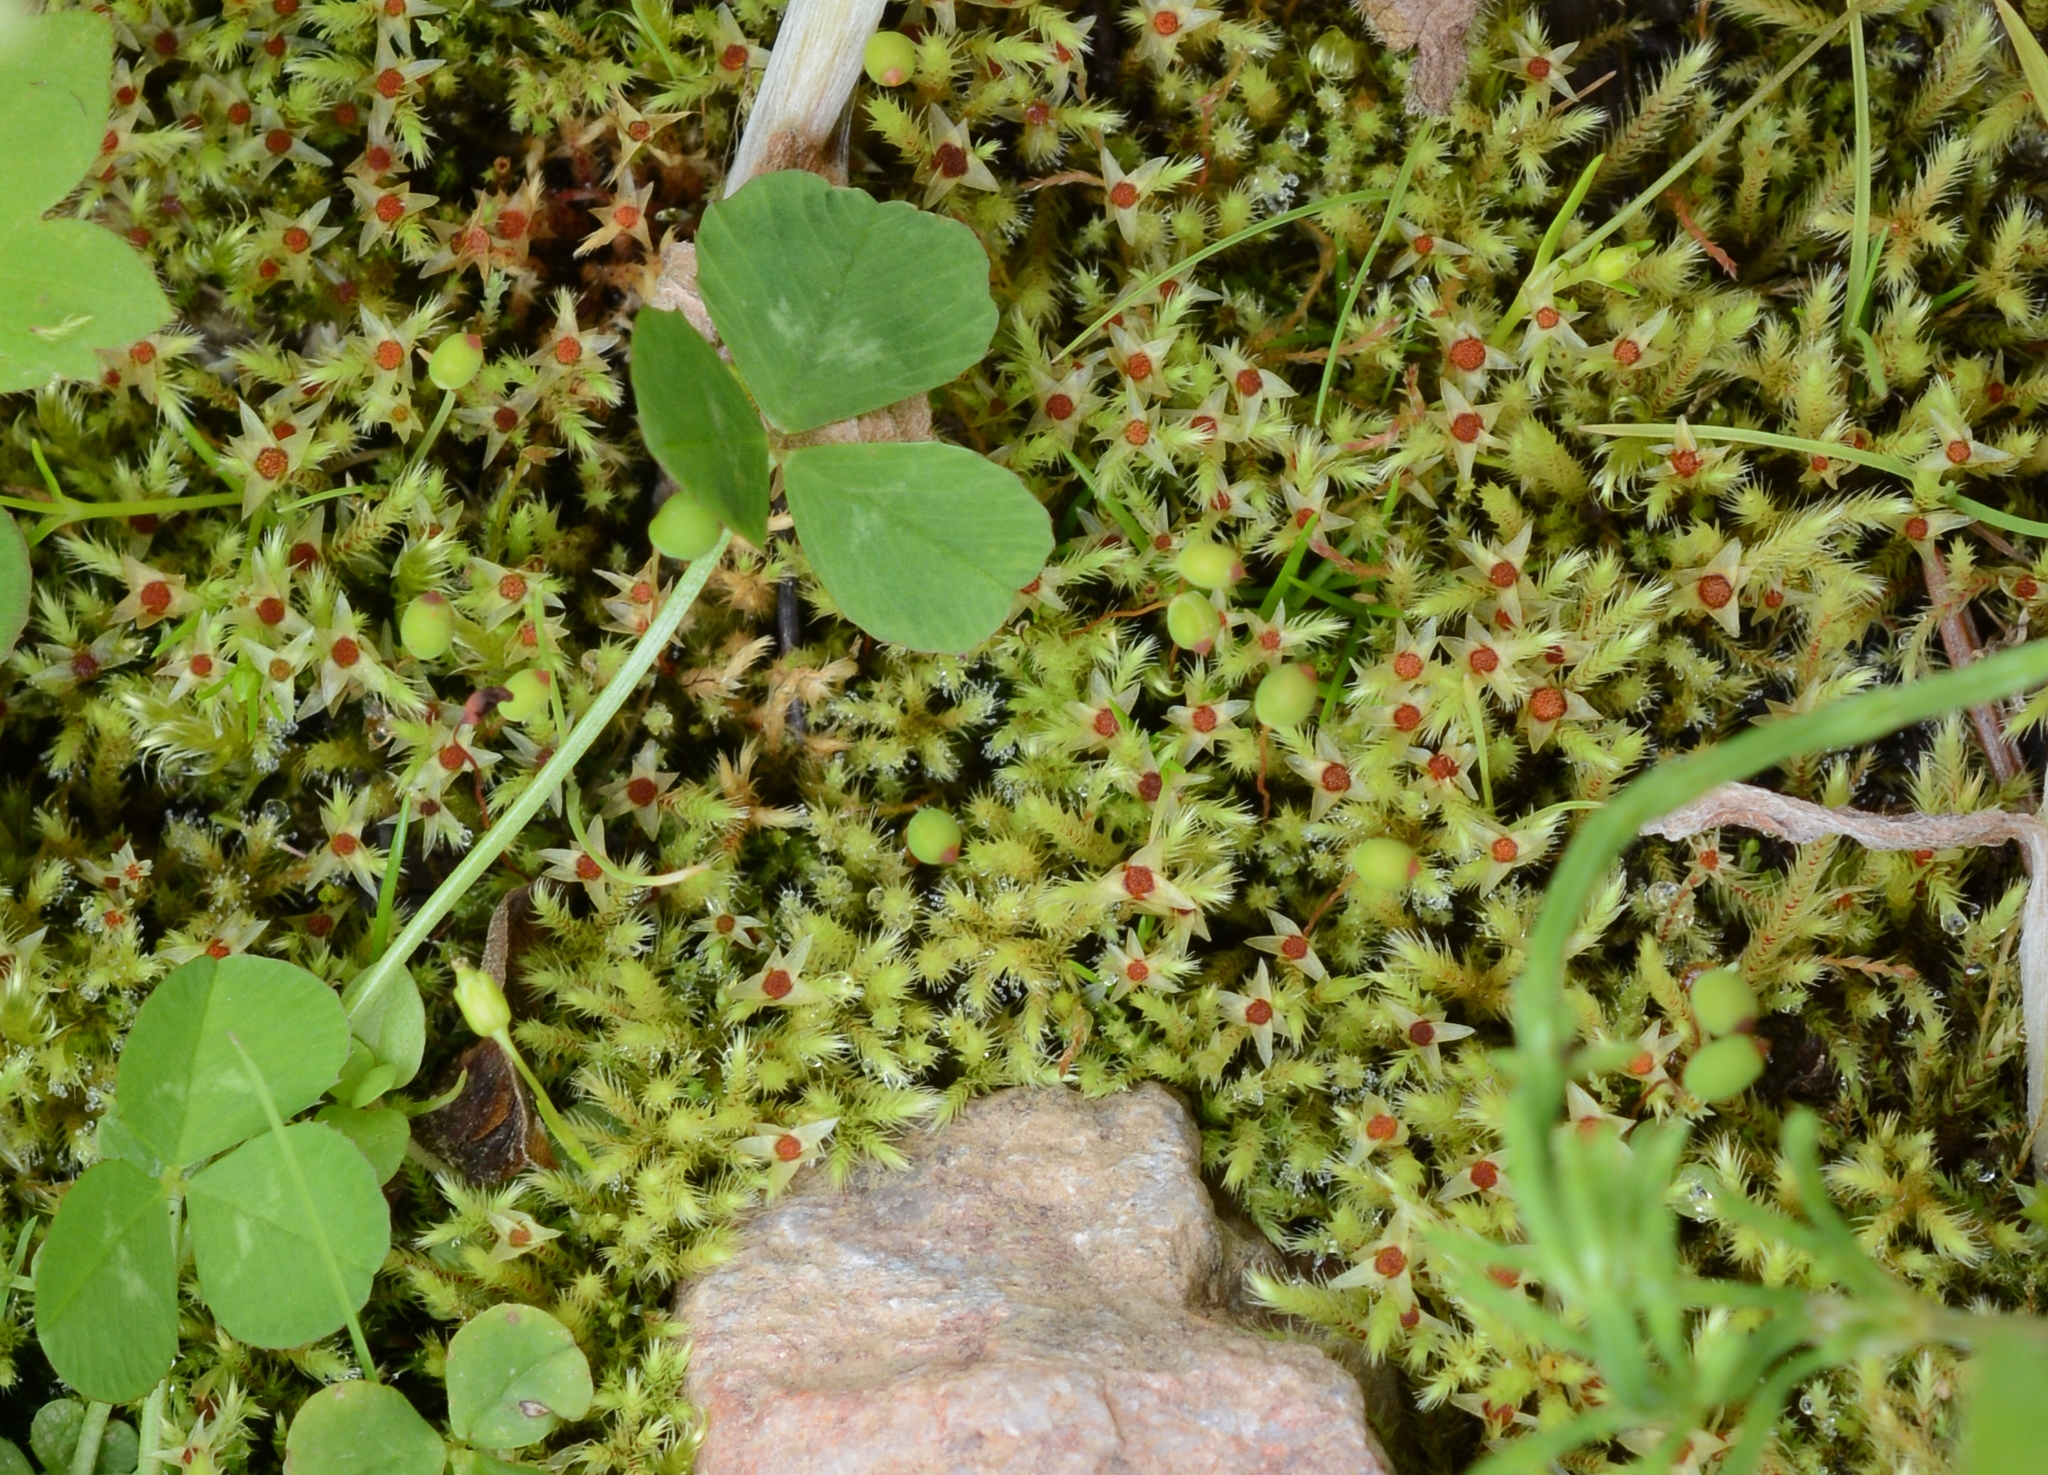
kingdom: Plantae
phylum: Bryophyta
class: Bryopsida
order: Bartramiales
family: Bartramiaceae
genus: Philonotis
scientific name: Philonotis fontana
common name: Fountain apple-moss
